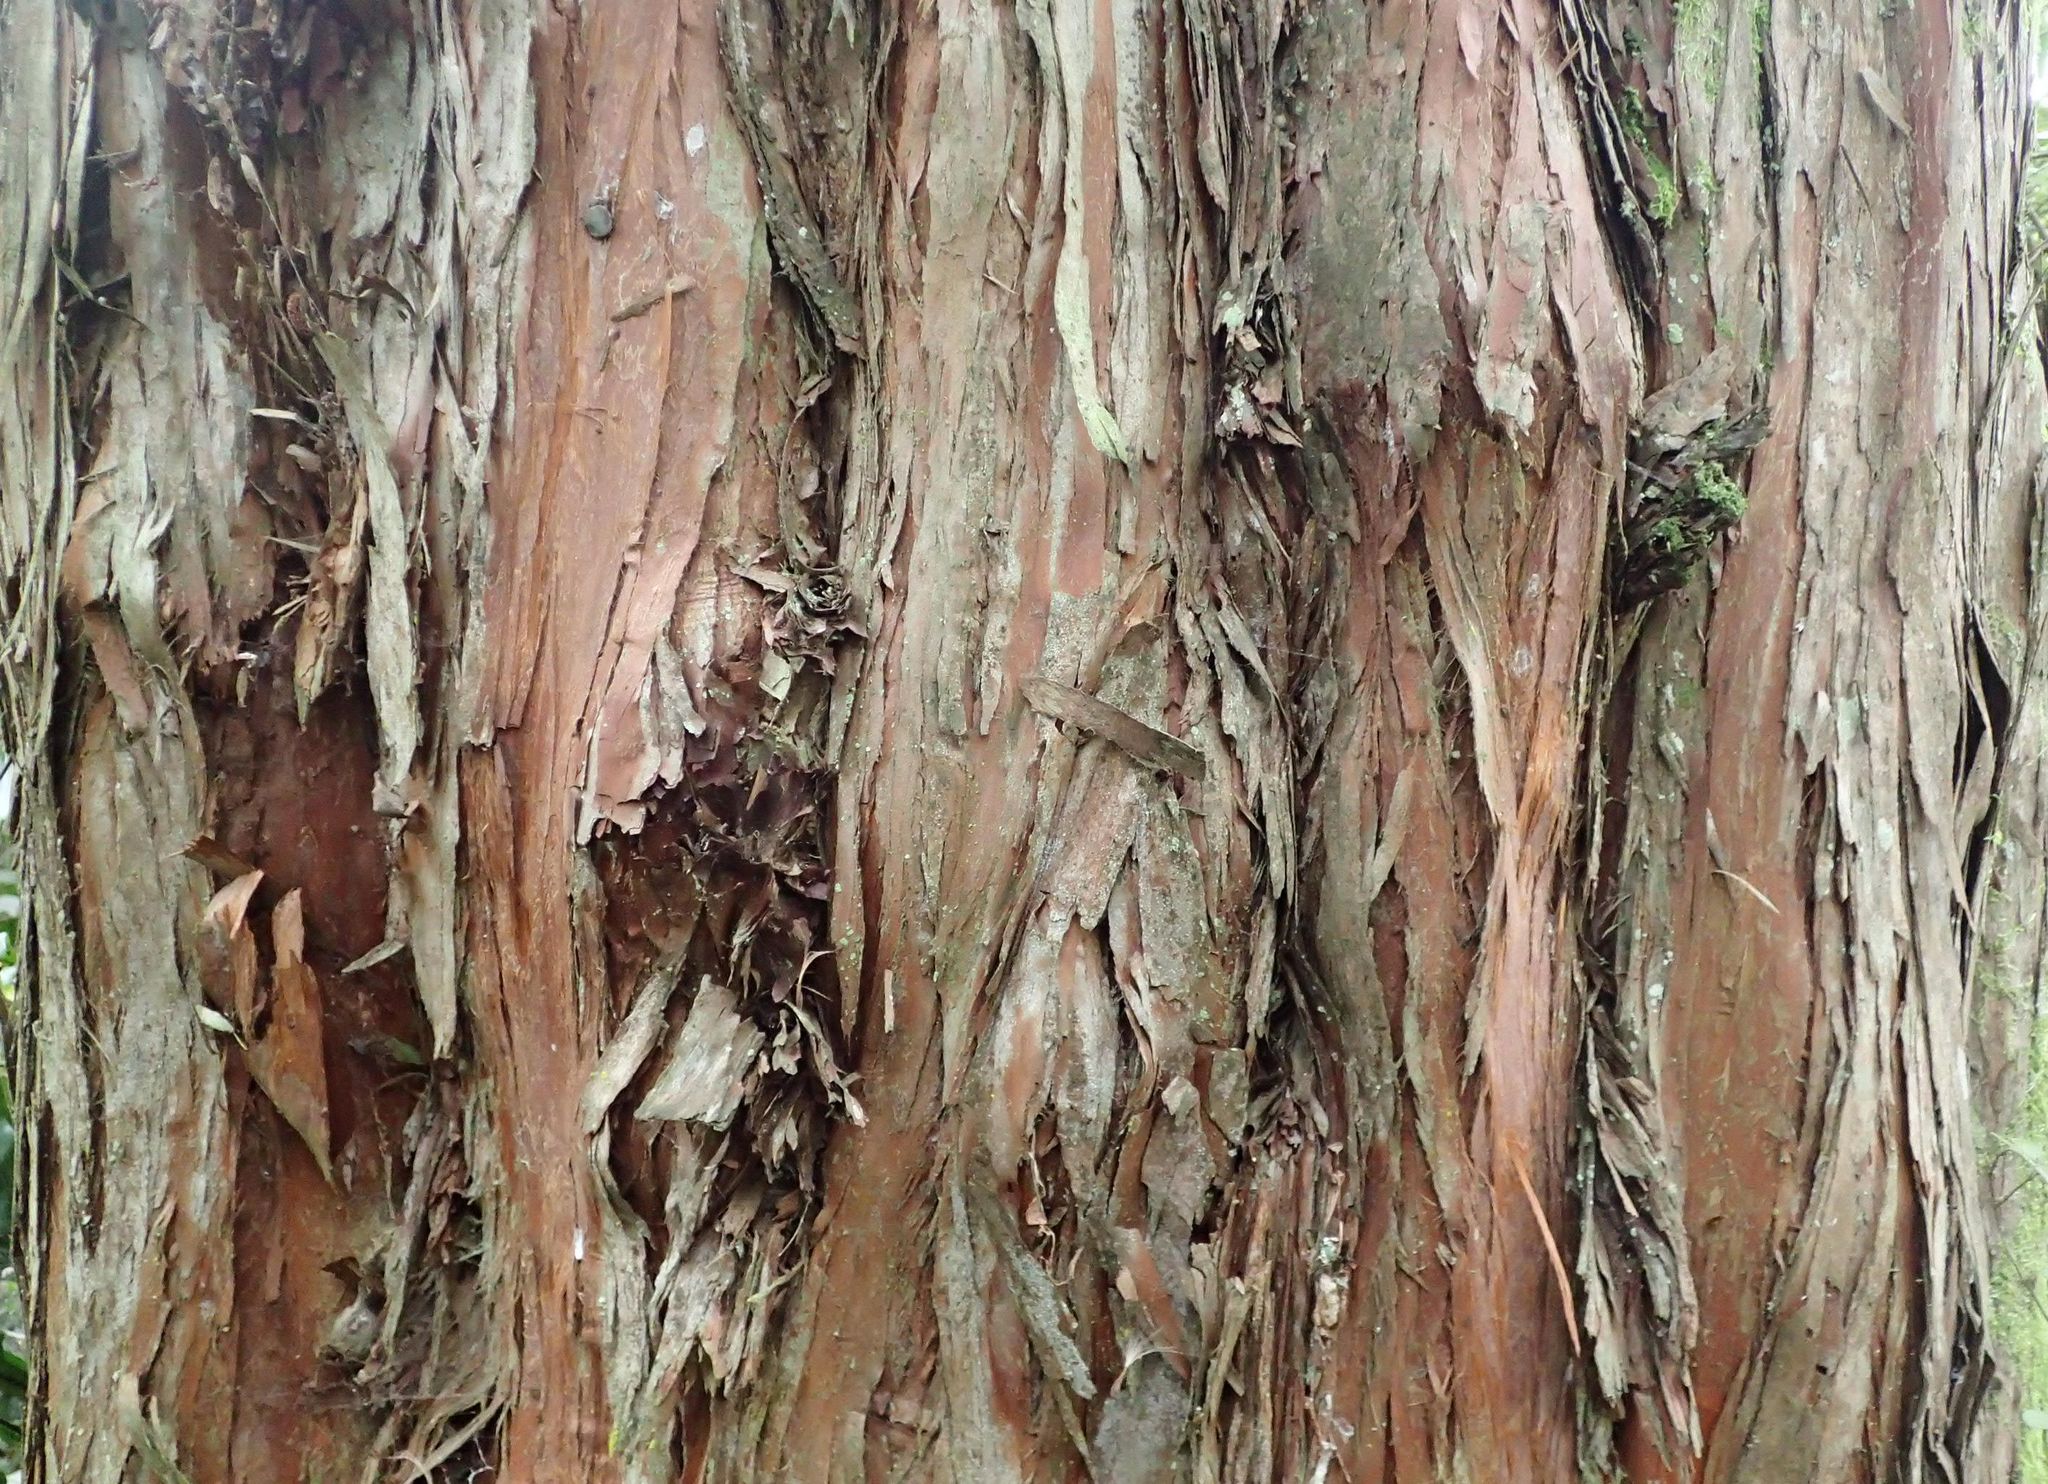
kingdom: Plantae
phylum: Tracheophyta
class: Pinopsida
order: Pinales
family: Podocarpaceae
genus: Podocarpus
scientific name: Podocarpus totara
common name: Totara
